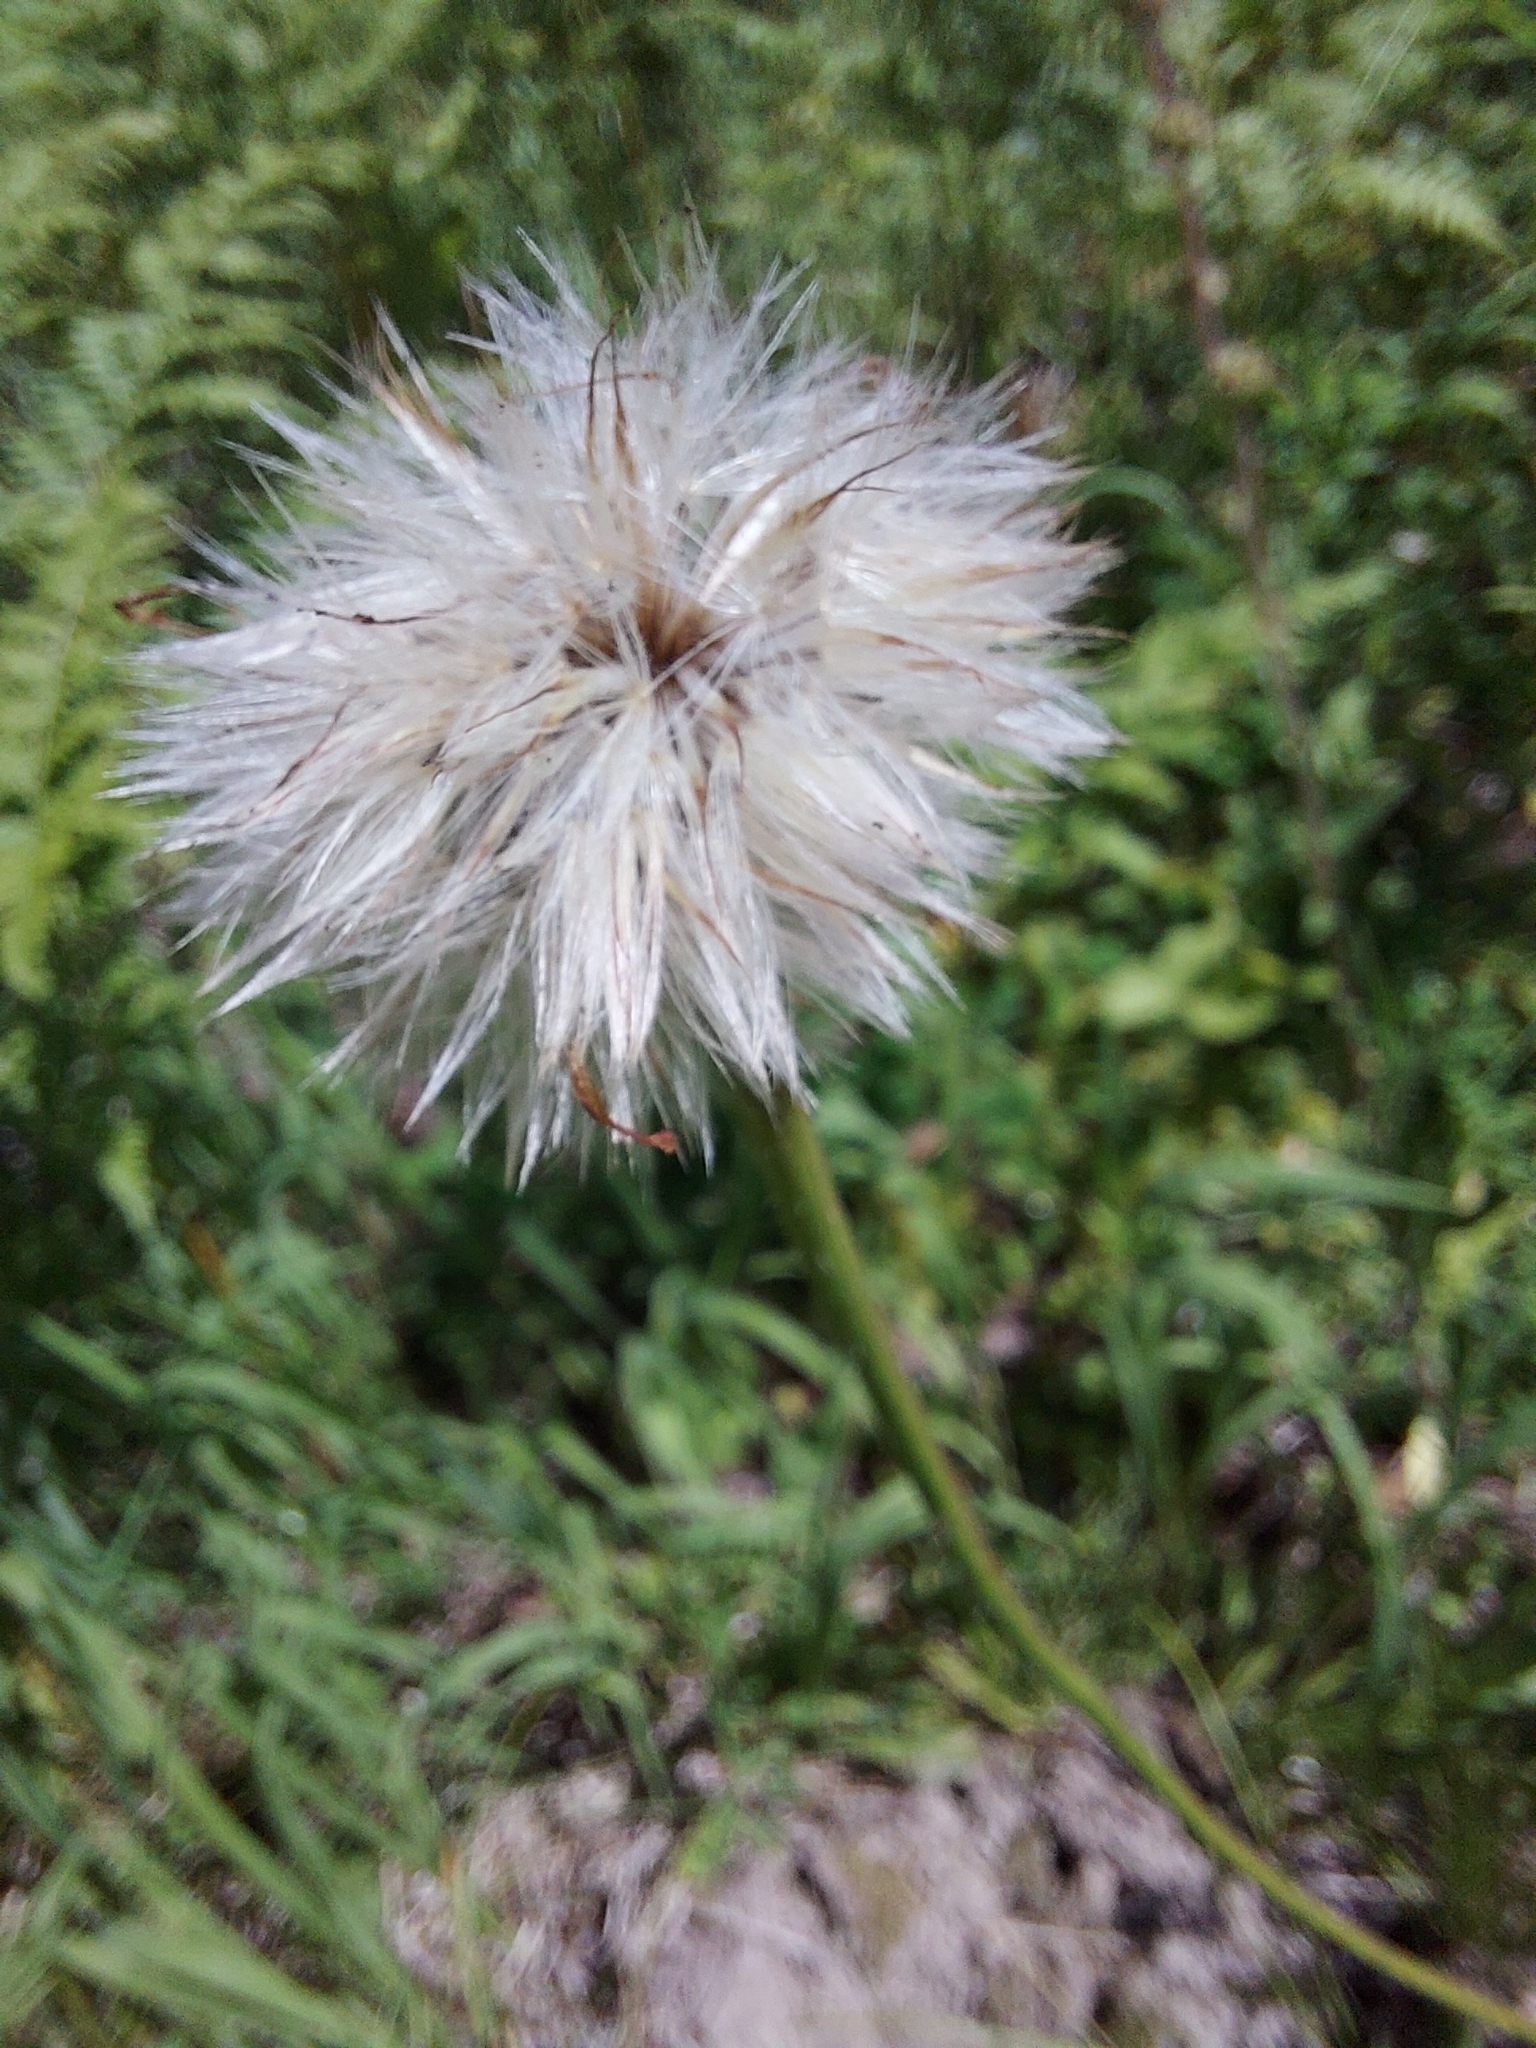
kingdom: Plantae
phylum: Tracheophyta
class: Magnoliopsida
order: Asterales
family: Asteraceae
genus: Trommsdorffia
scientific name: Trommsdorffia maculata
